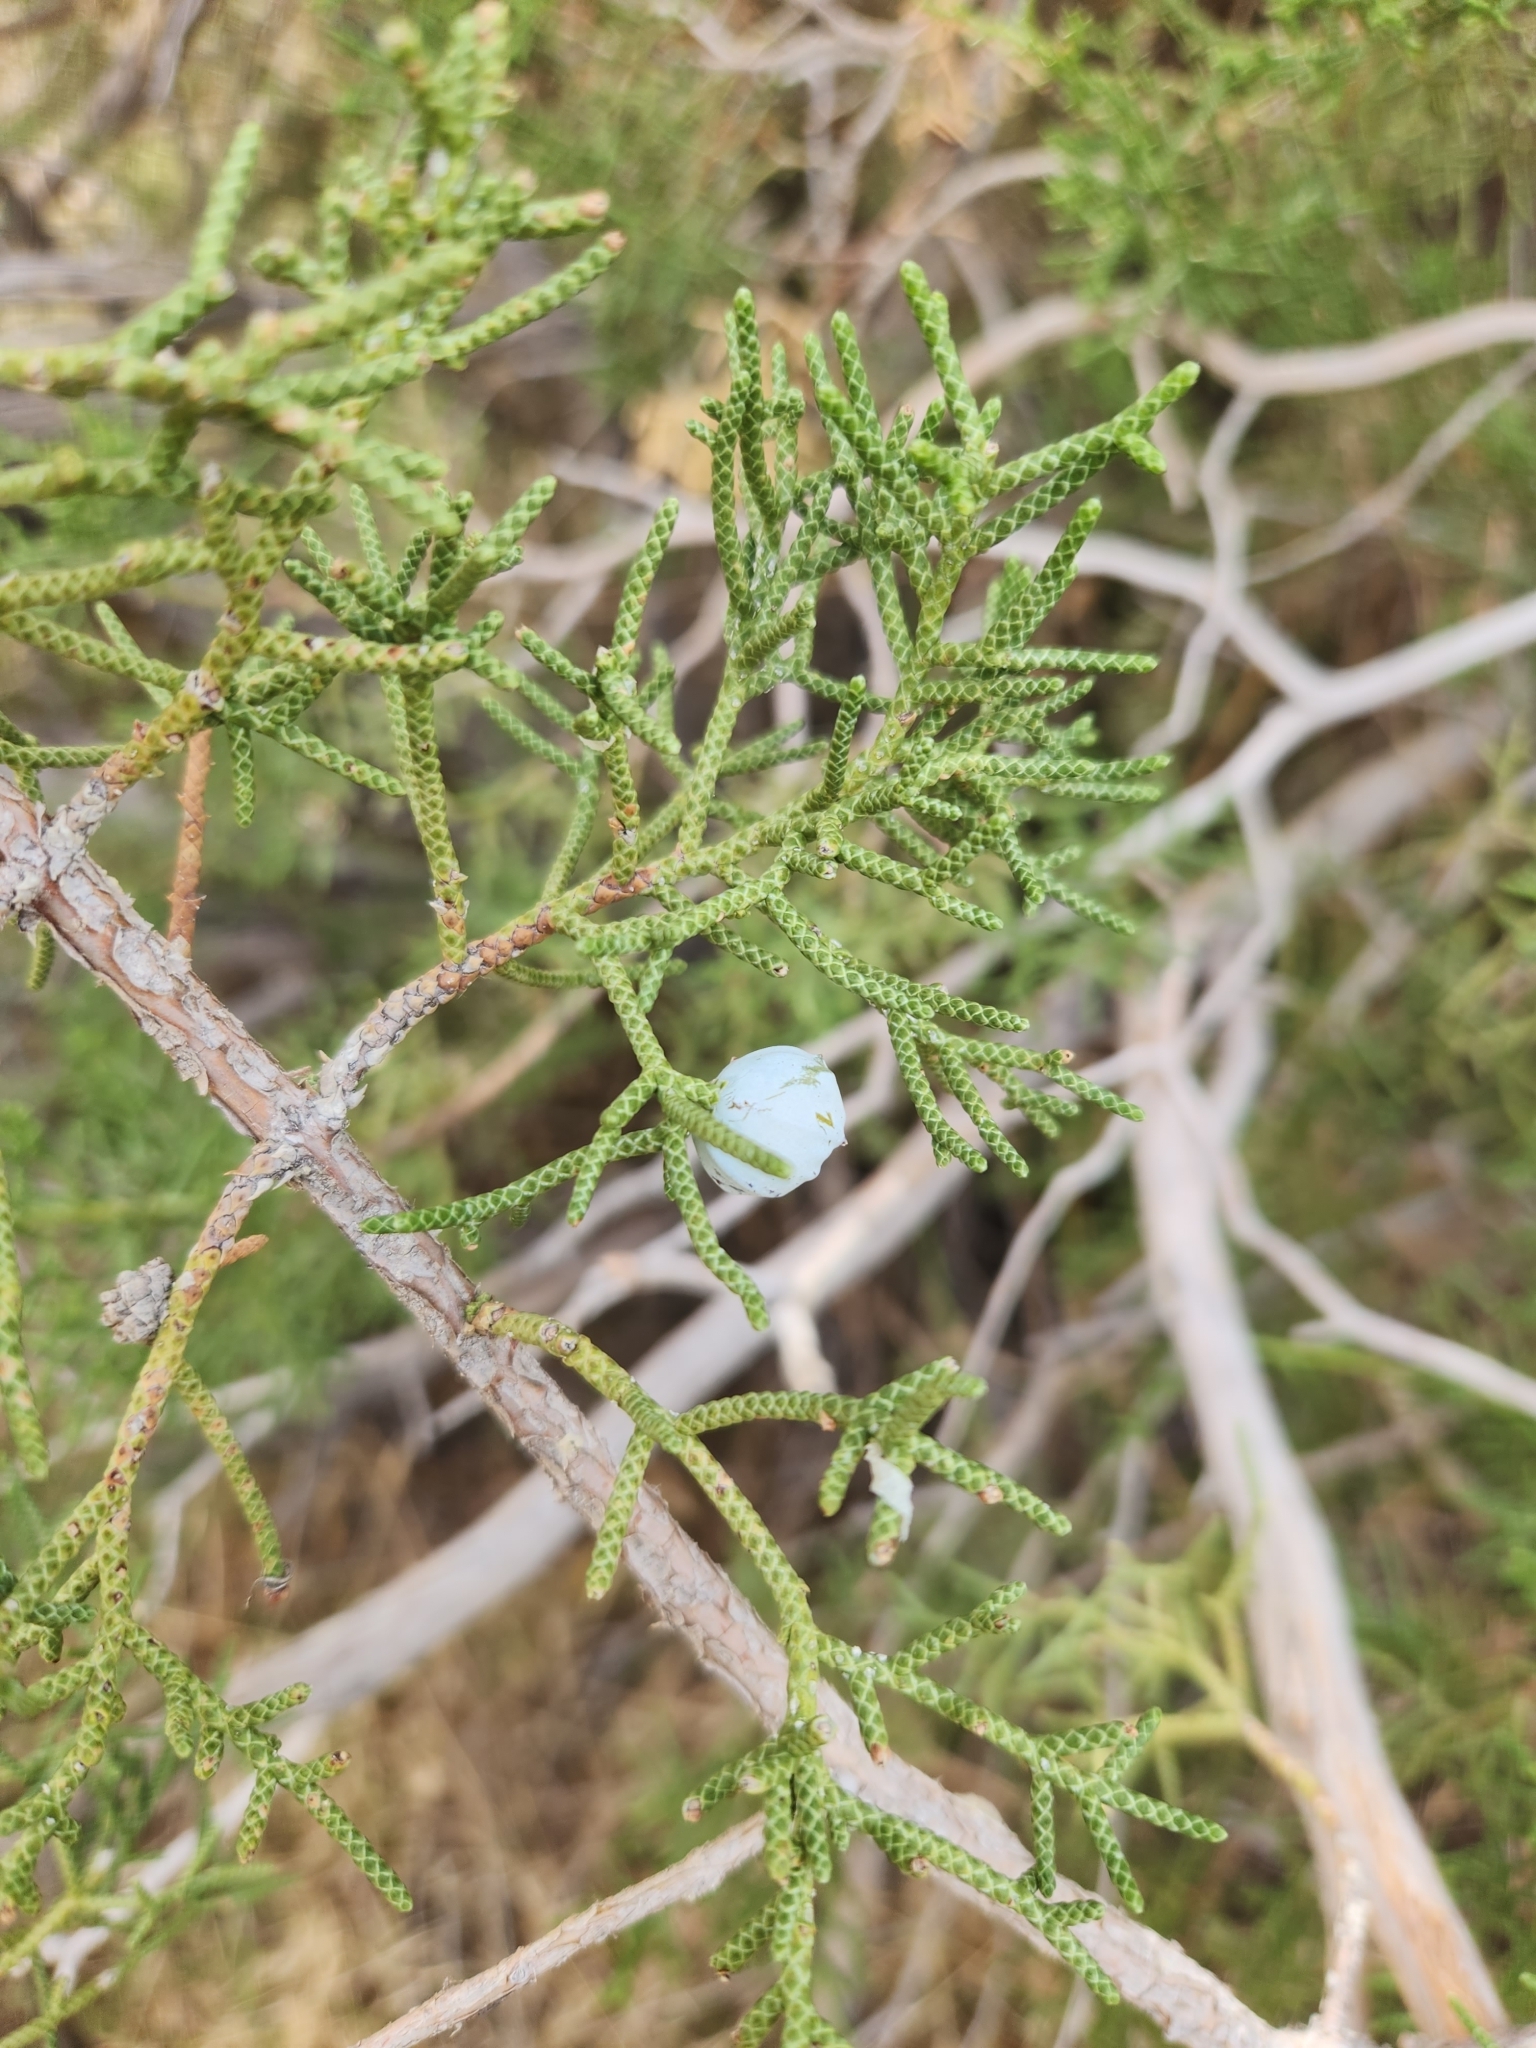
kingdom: Plantae
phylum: Tracheophyta
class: Pinopsida
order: Pinales
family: Cupressaceae
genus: Juniperus
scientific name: Juniperus californica
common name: California juniper
